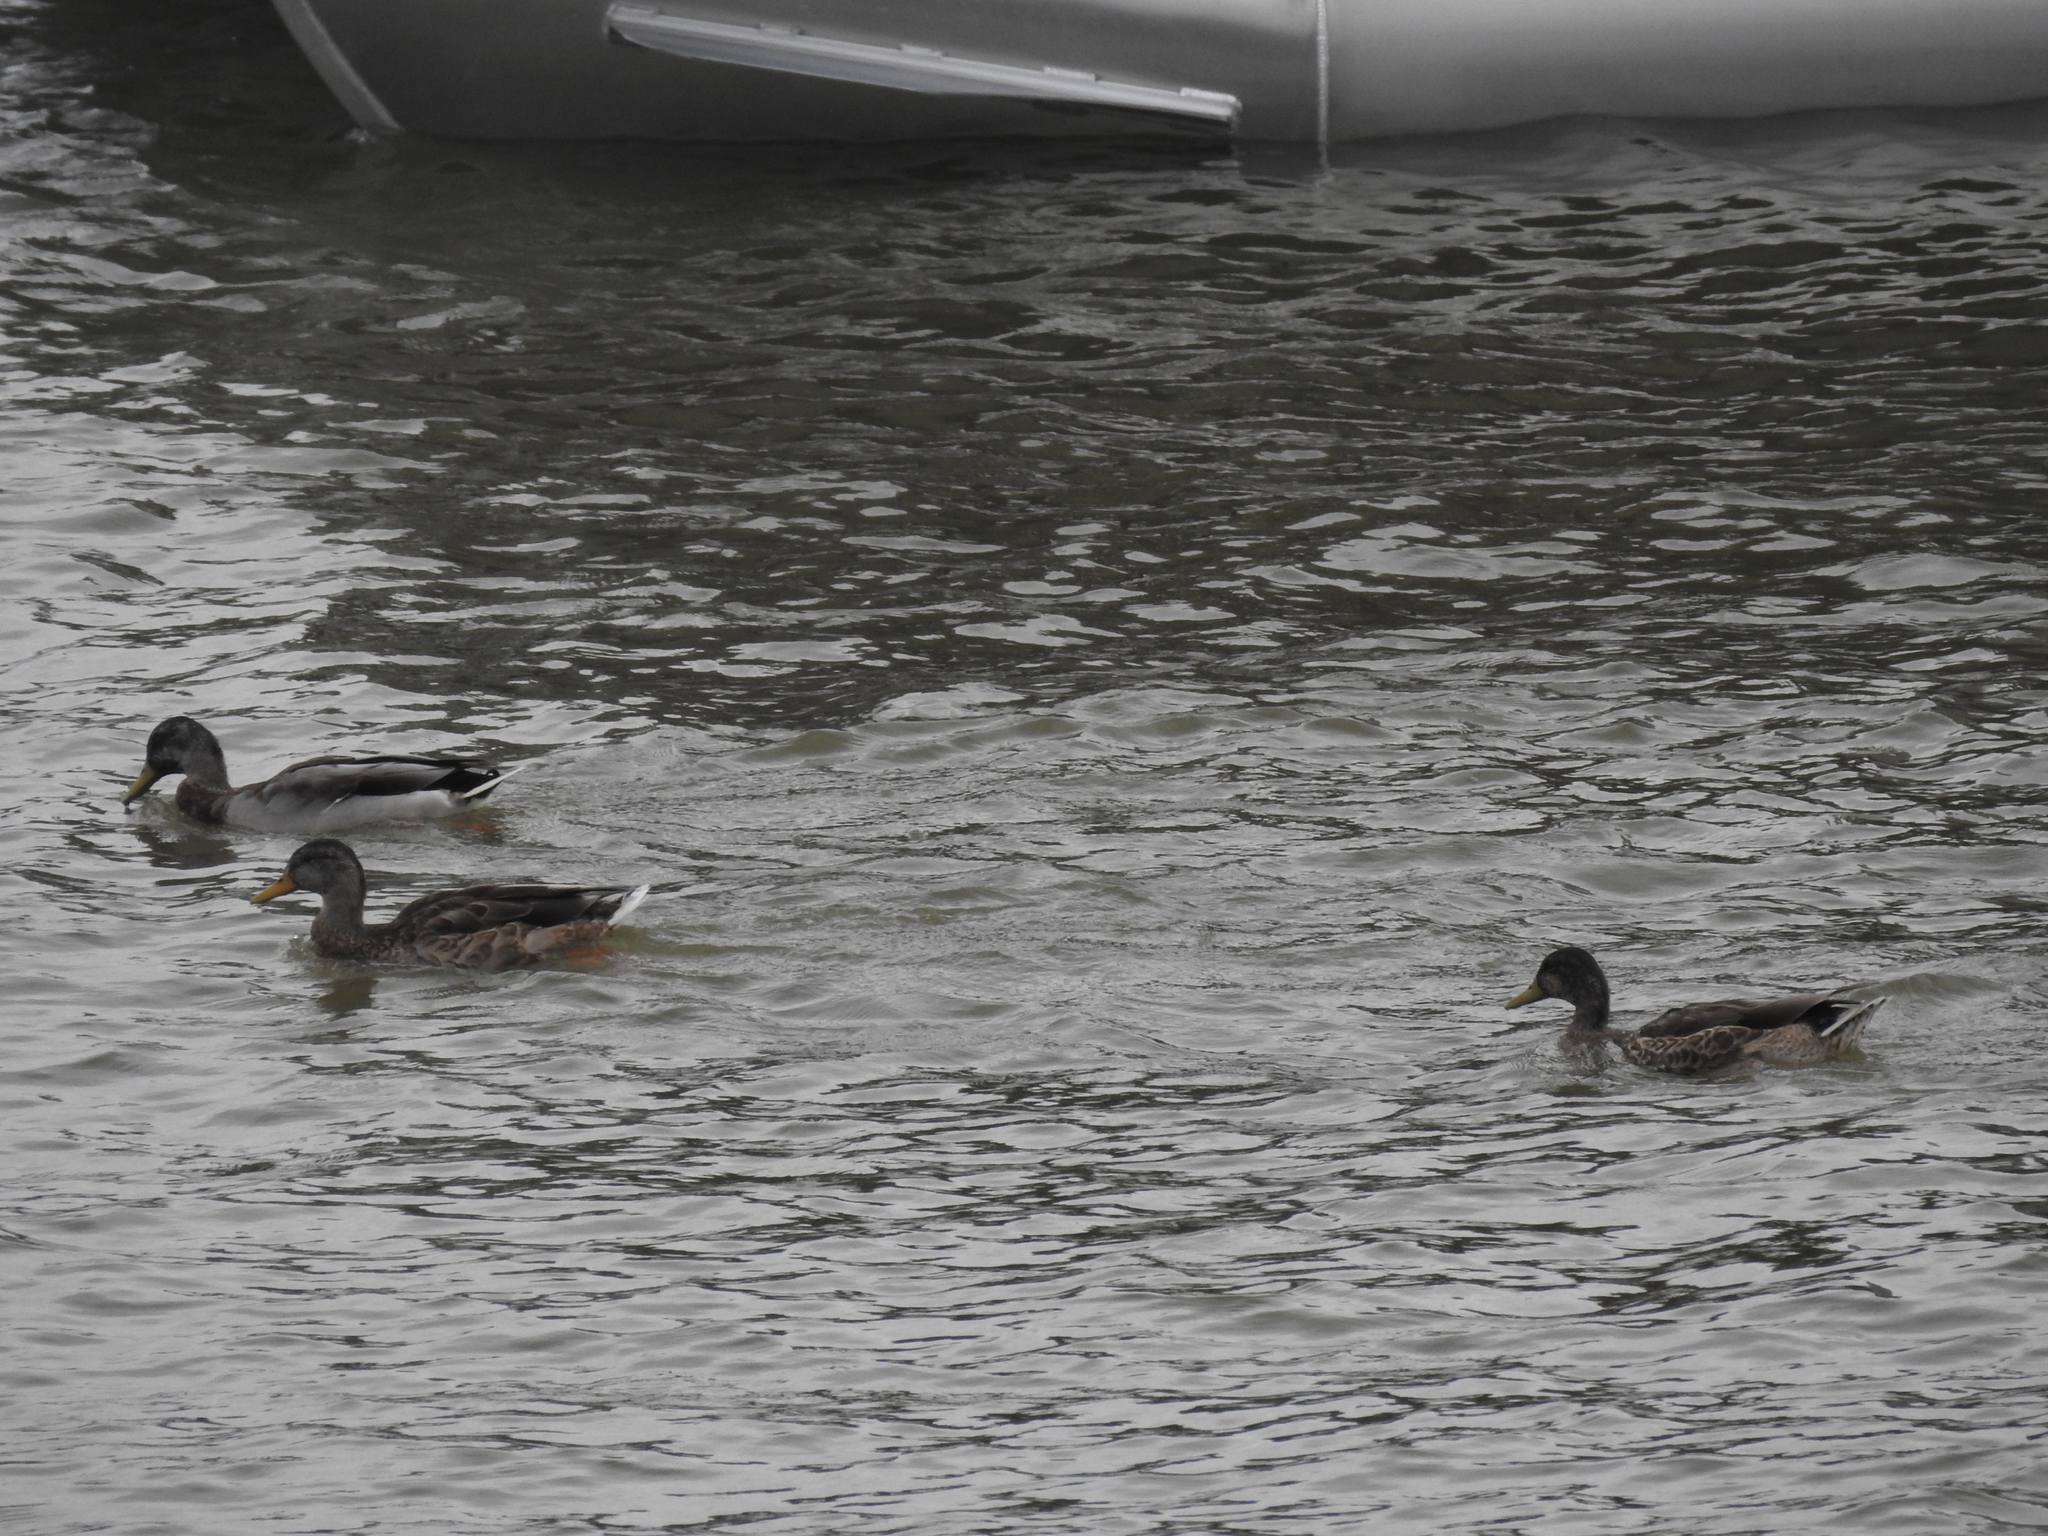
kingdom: Animalia
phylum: Chordata
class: Aves
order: Anseriformes
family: Anatidae
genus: Anas
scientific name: Anas platyrhynchos
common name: Mallard
